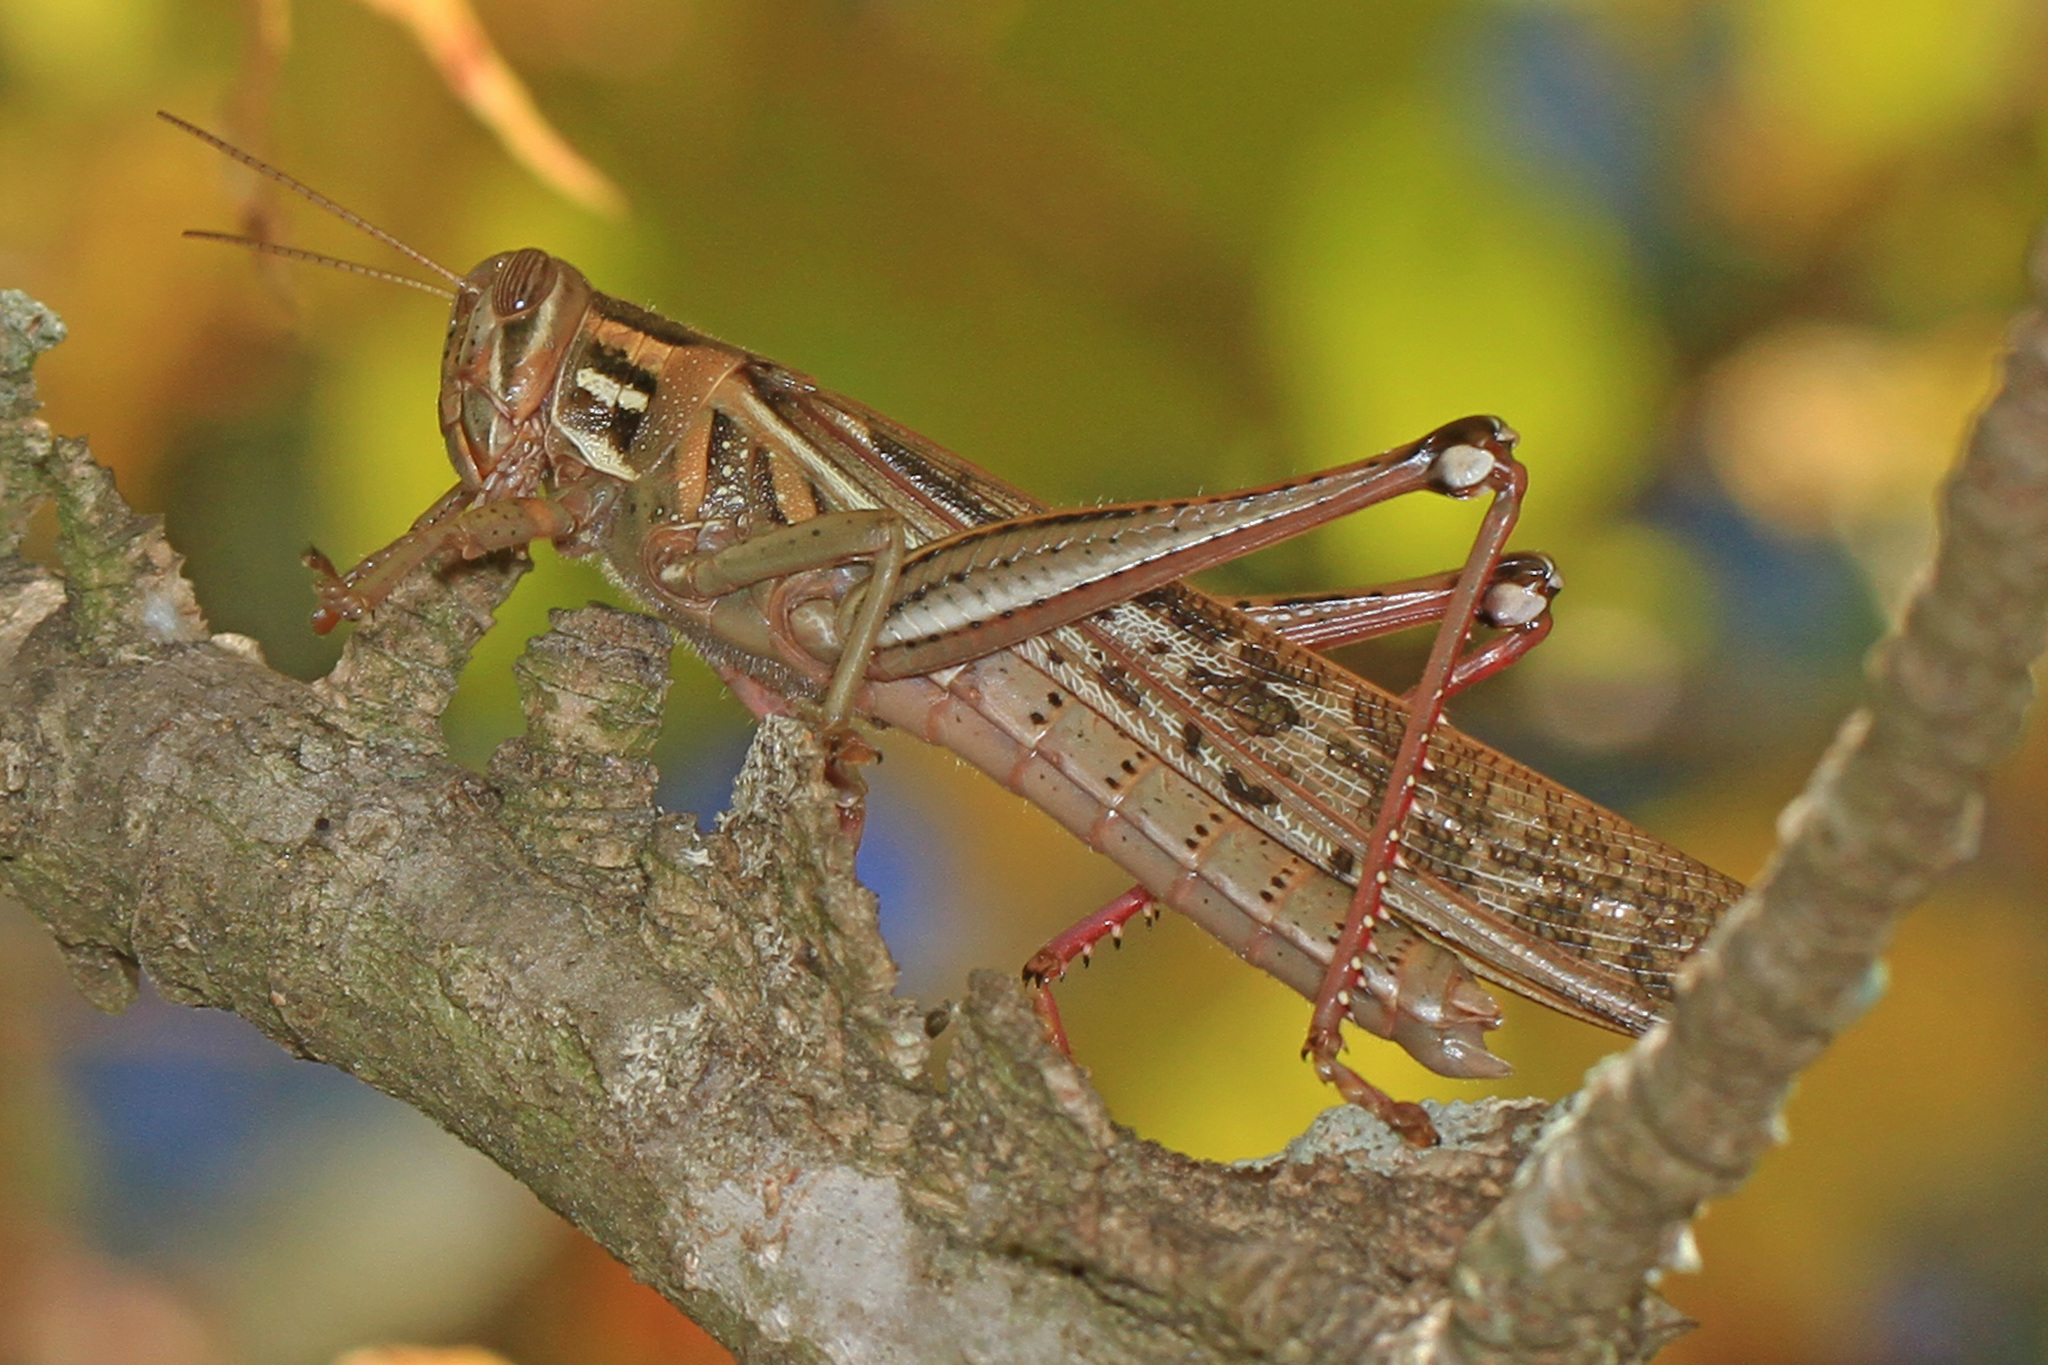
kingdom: Animalia
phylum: Arthropoda
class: Insecta
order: Orthoptera
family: Acrididae
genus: Schistocerca
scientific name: Schistocerca americana
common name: American bird locust
